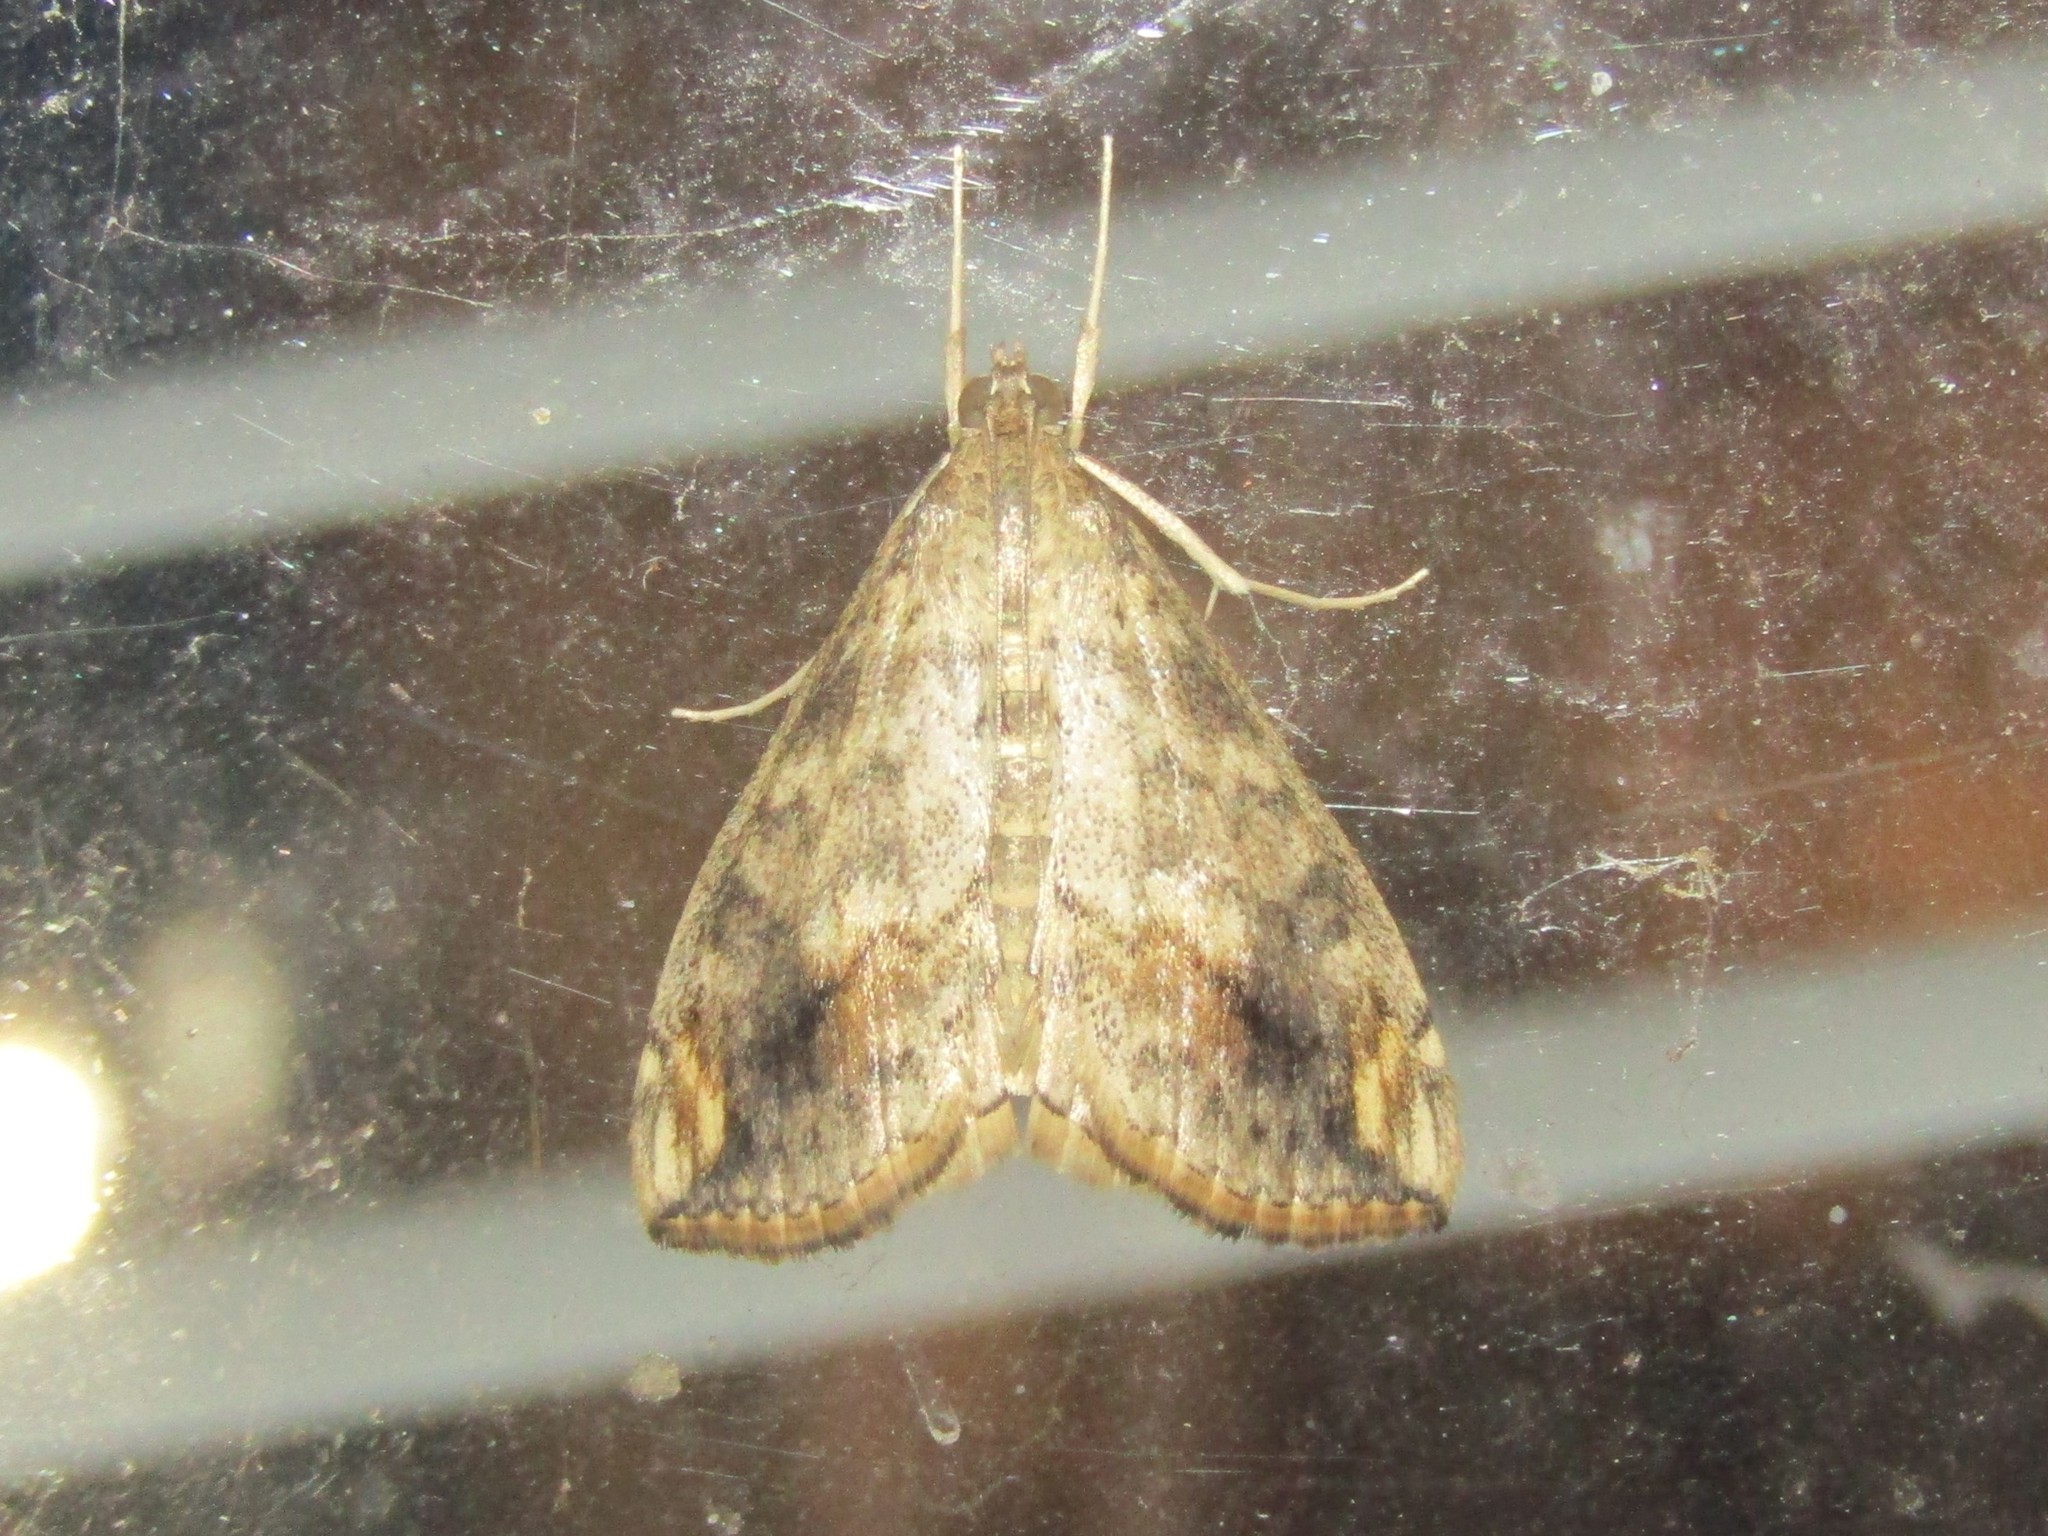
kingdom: Animalia
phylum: Arthropoda
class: Insecta
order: Lepidoptera
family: Crambidae
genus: Evergestis
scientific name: Evergestis rimosalis
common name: Cross-striped cabbageworm moth
